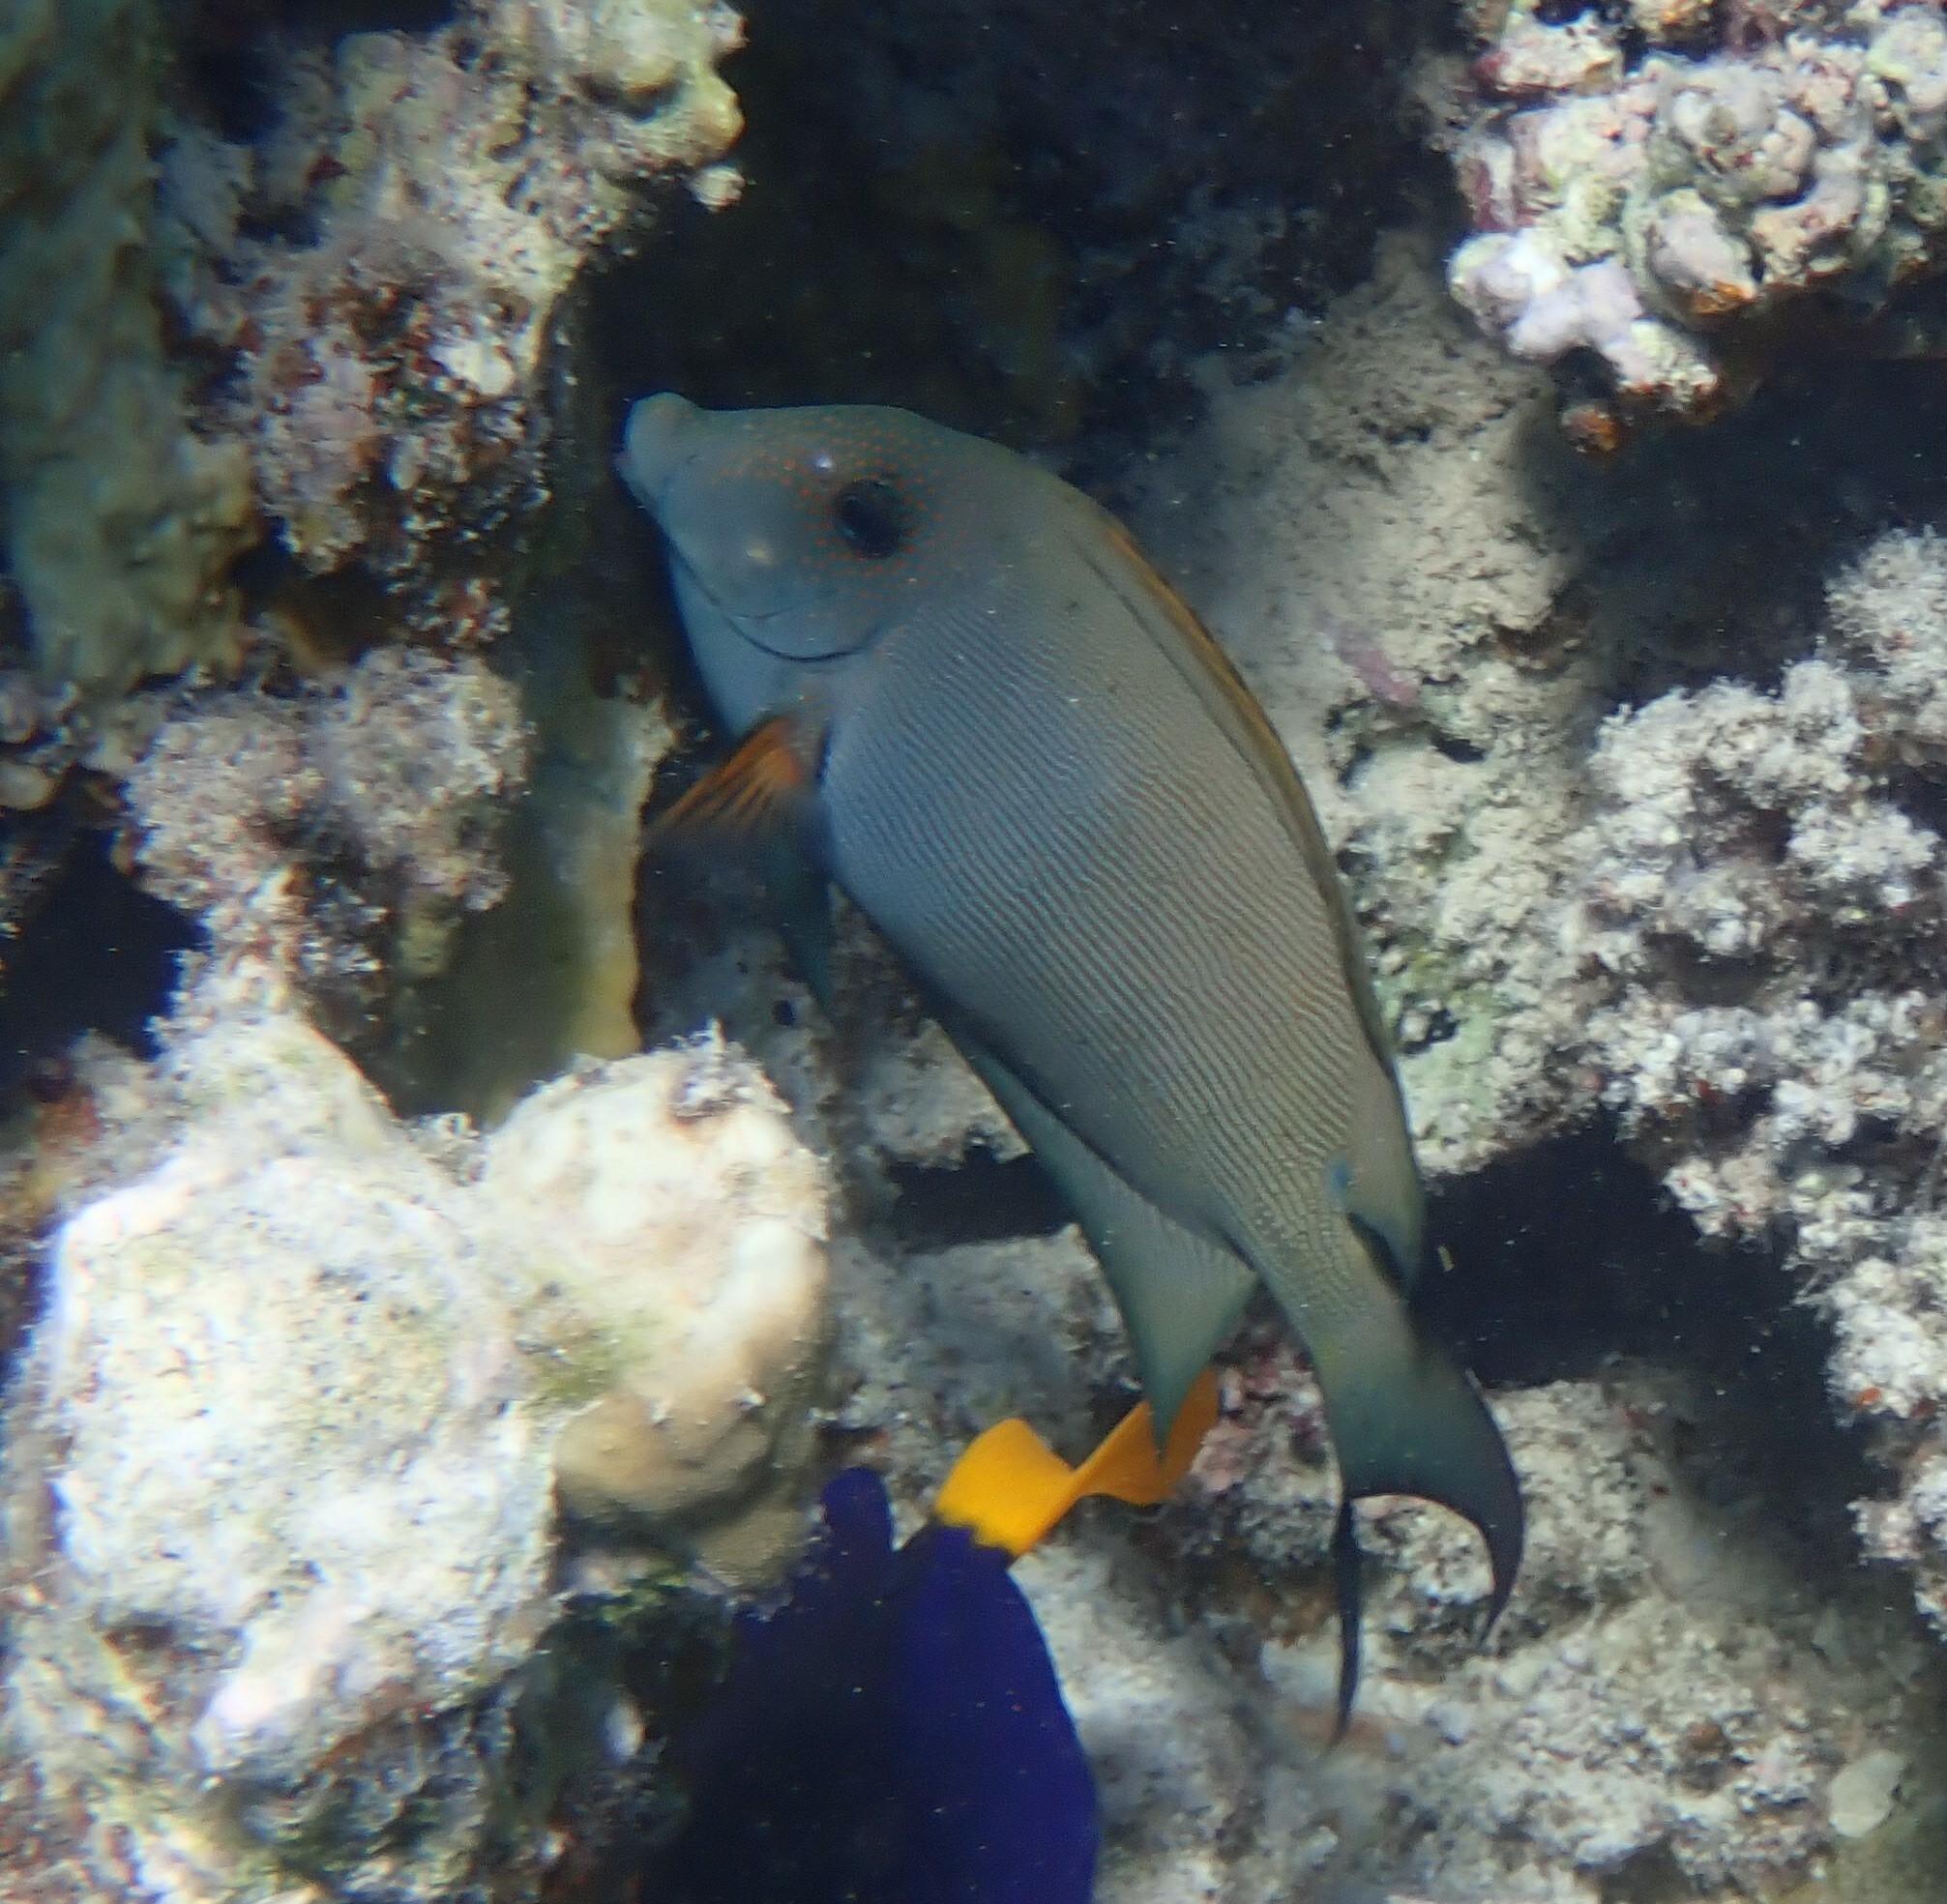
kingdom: Animalia
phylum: Chordata
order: Perciformes
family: Acanthuridae
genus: Ctenochaetus
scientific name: Ctenochaetus striatus
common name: Bristle-toothed surgeonfish
